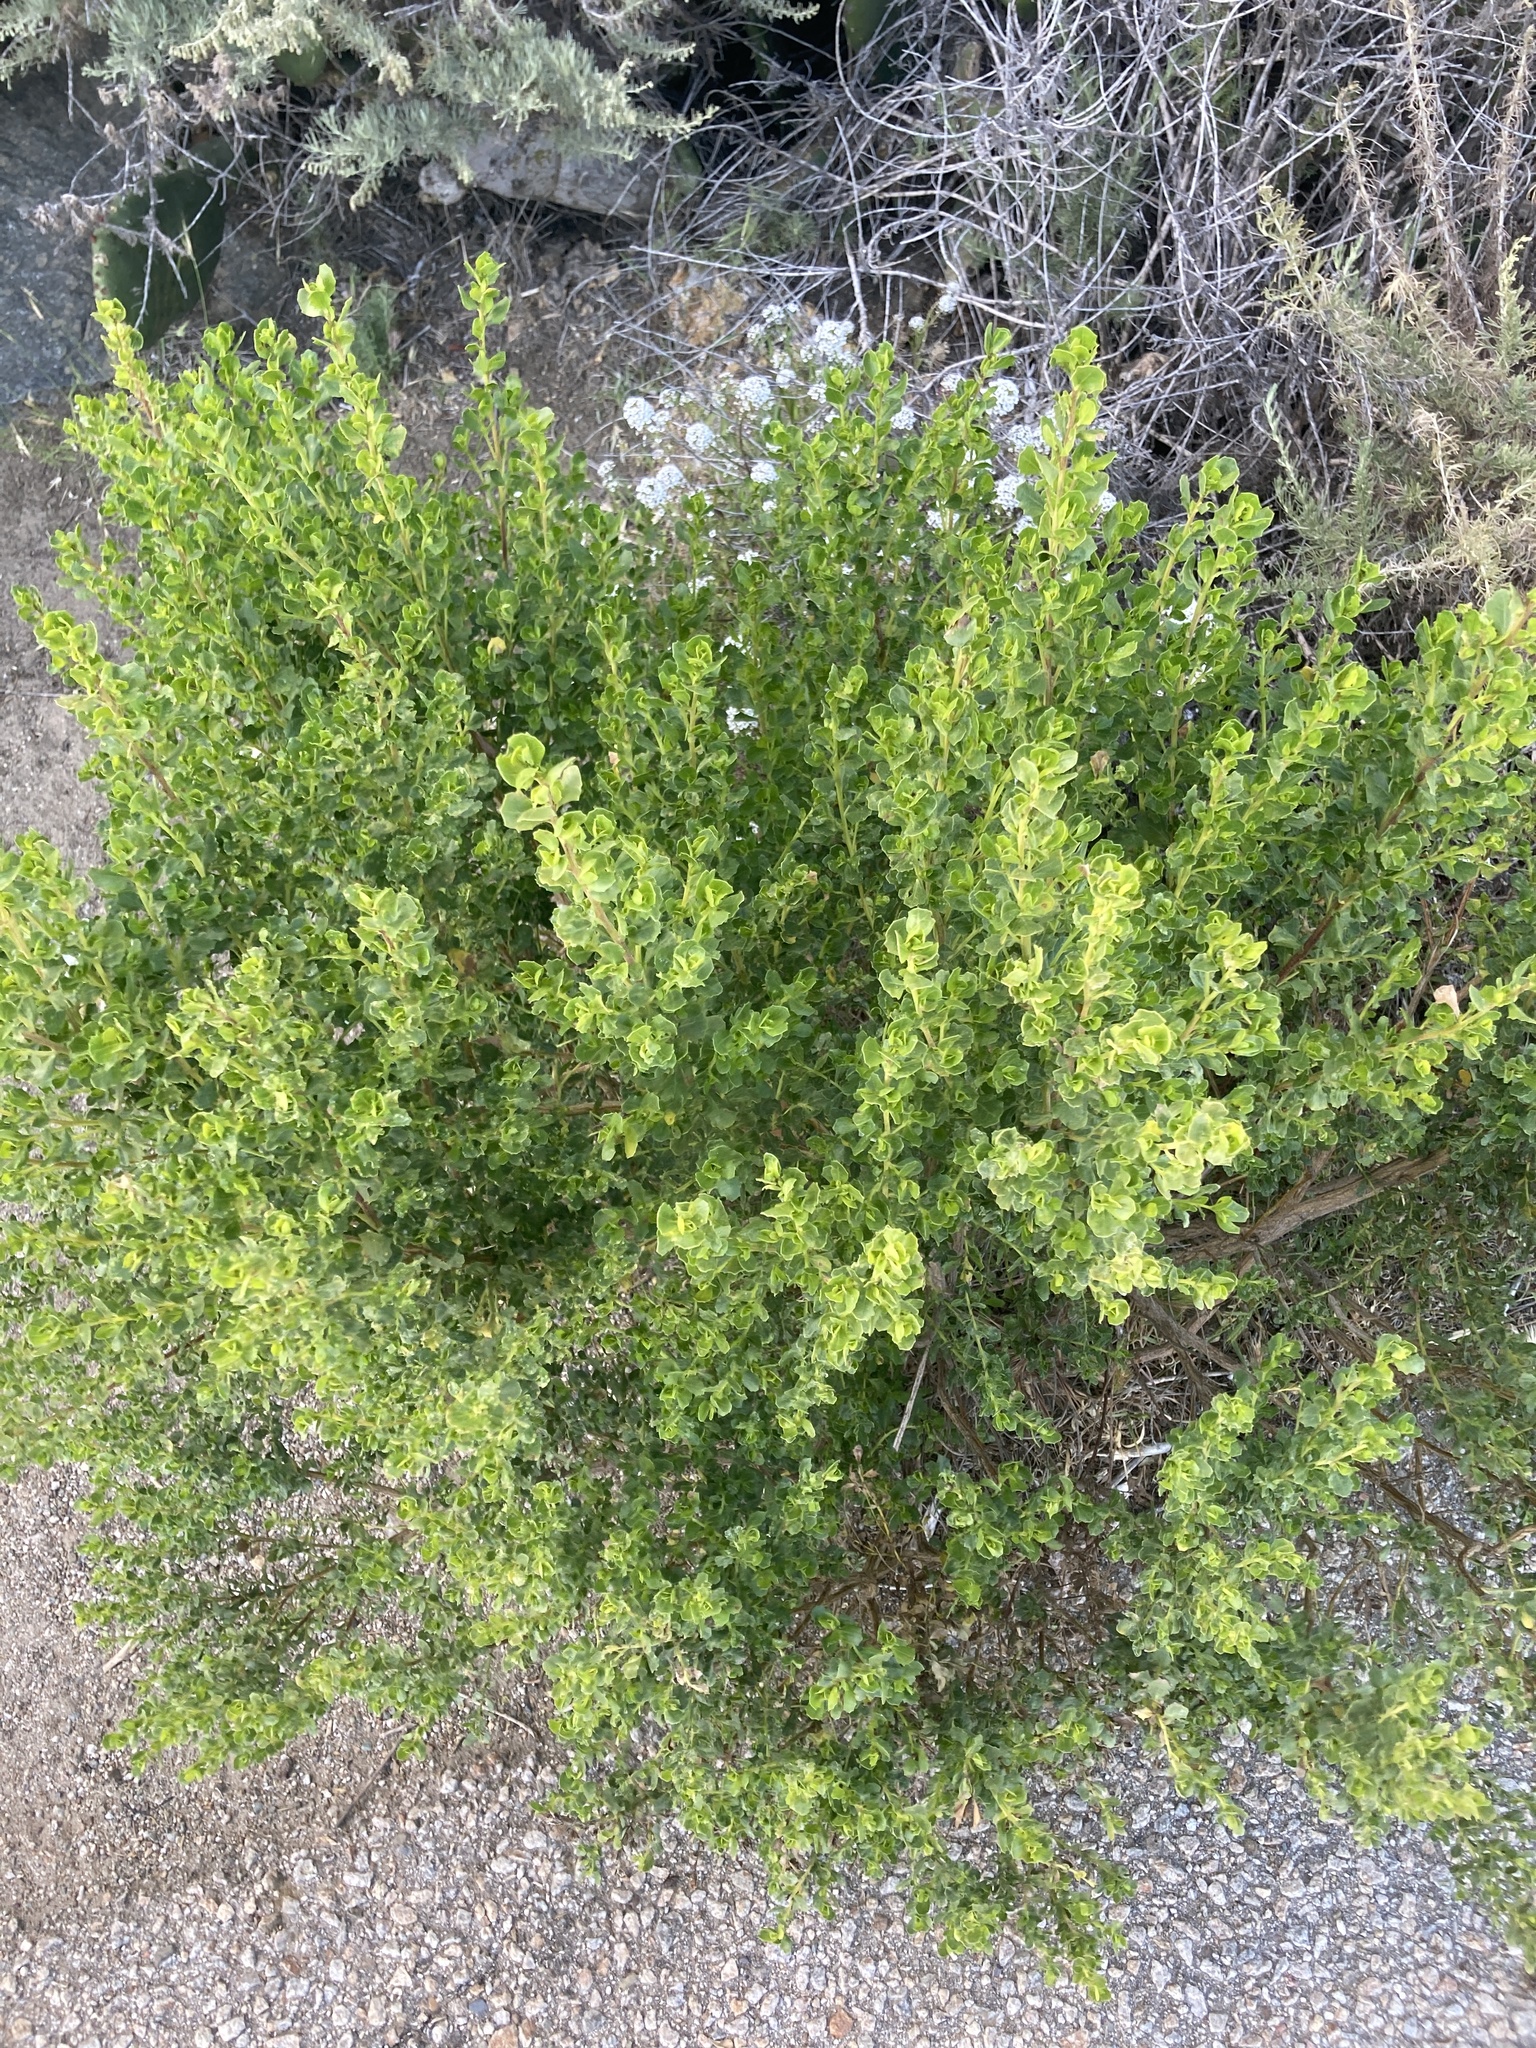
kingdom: Plantae
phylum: Tracheophyta
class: Magnoliopsida
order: Asterales
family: Asteraceae
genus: Baccharis
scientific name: Baccharis pilularis
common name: Coyotebrush
